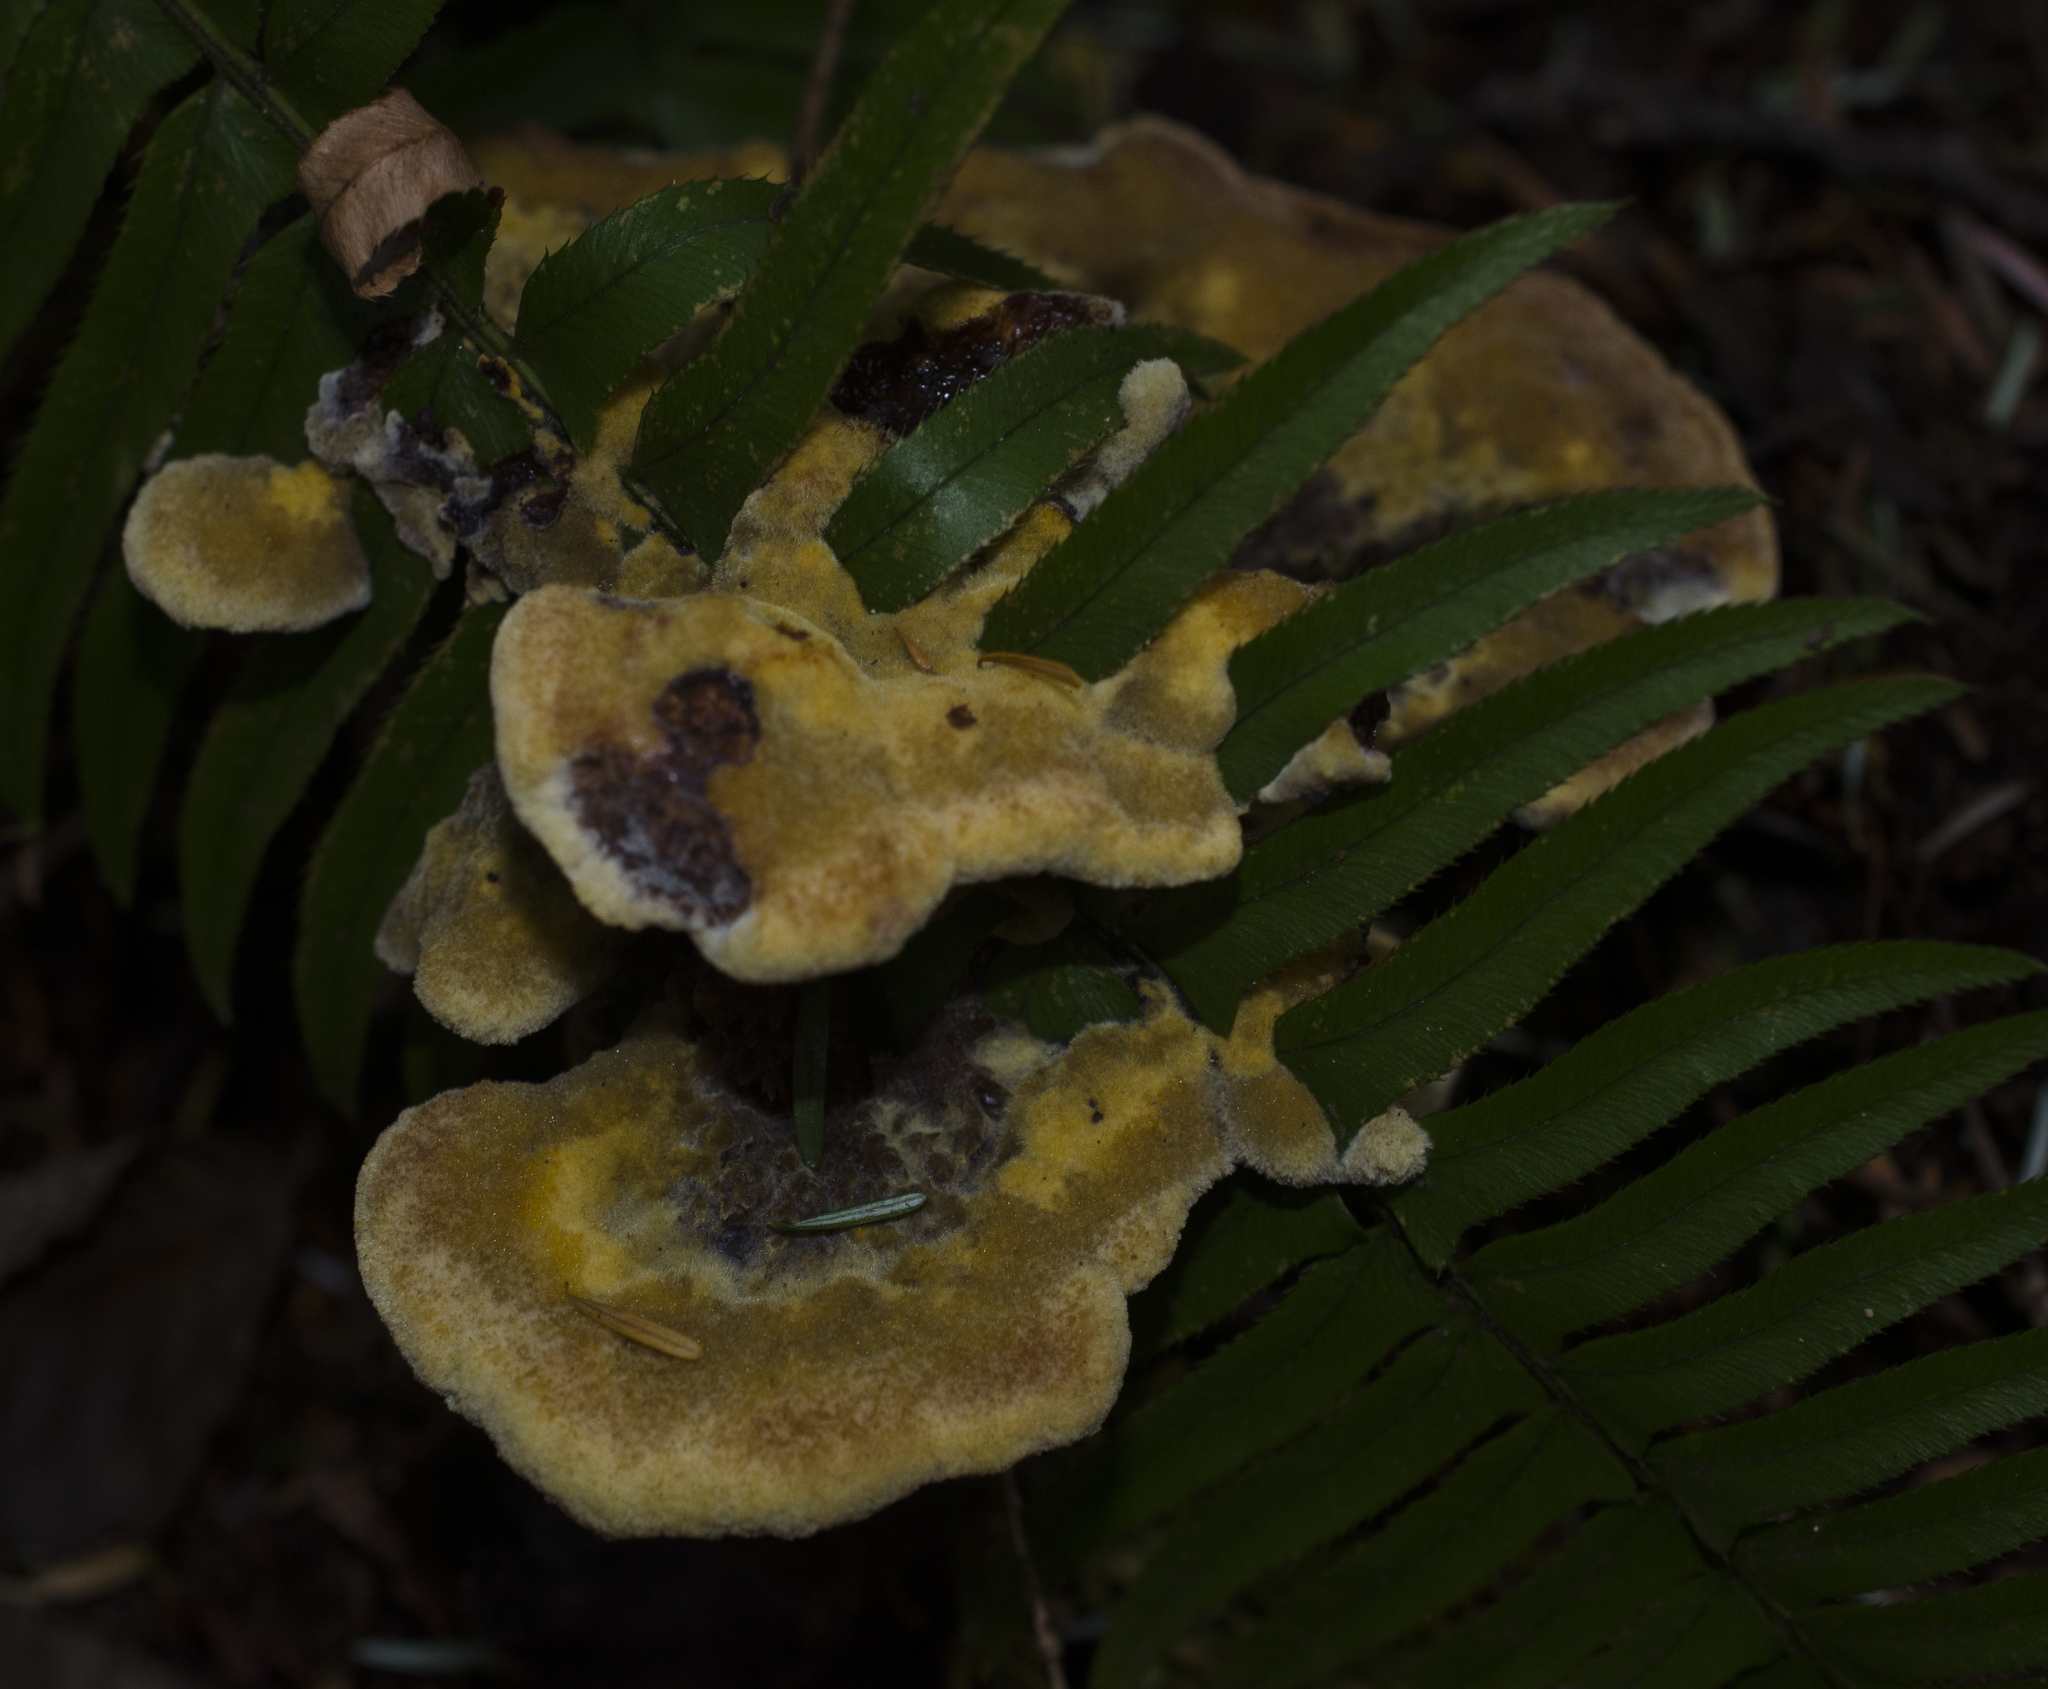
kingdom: Fungi
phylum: Basidiomycota
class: Agaricomycetes
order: Polyporales
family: Laetiporaceae
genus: Phaeolus
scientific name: Phaeolus schweinitzii
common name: Dyer's mazegill
